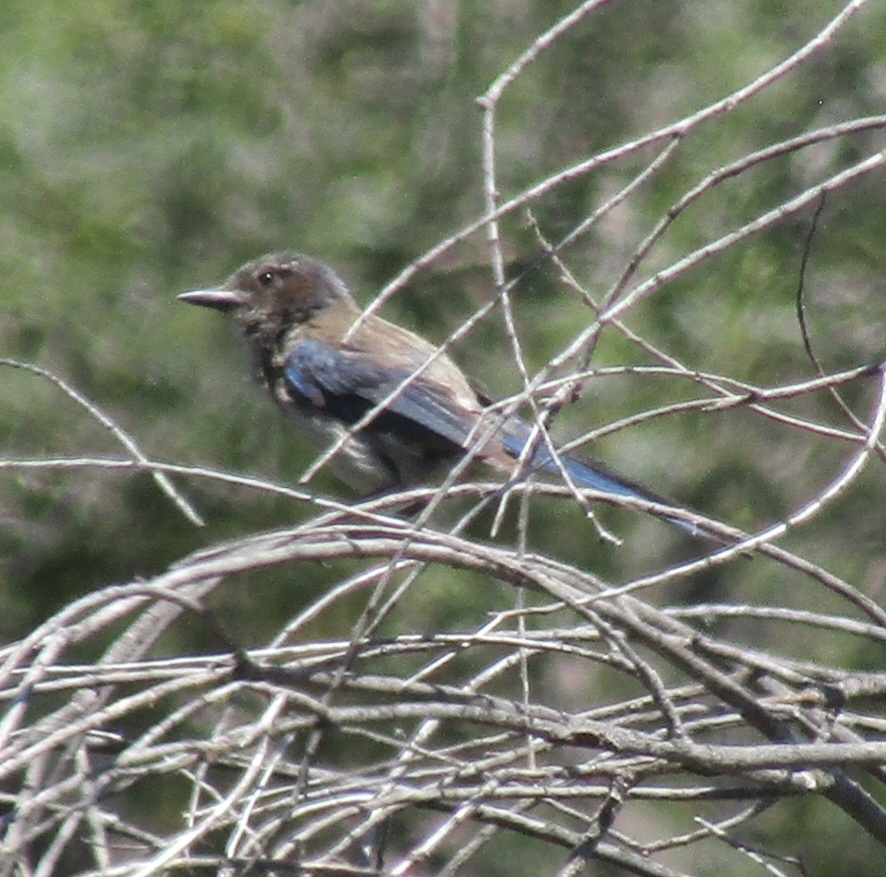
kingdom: Animalia
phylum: Chordata
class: Aves
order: Passeriformes
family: Corvidae
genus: Aphelocoma
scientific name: Aphelocoma californica
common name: California scrub-jay
